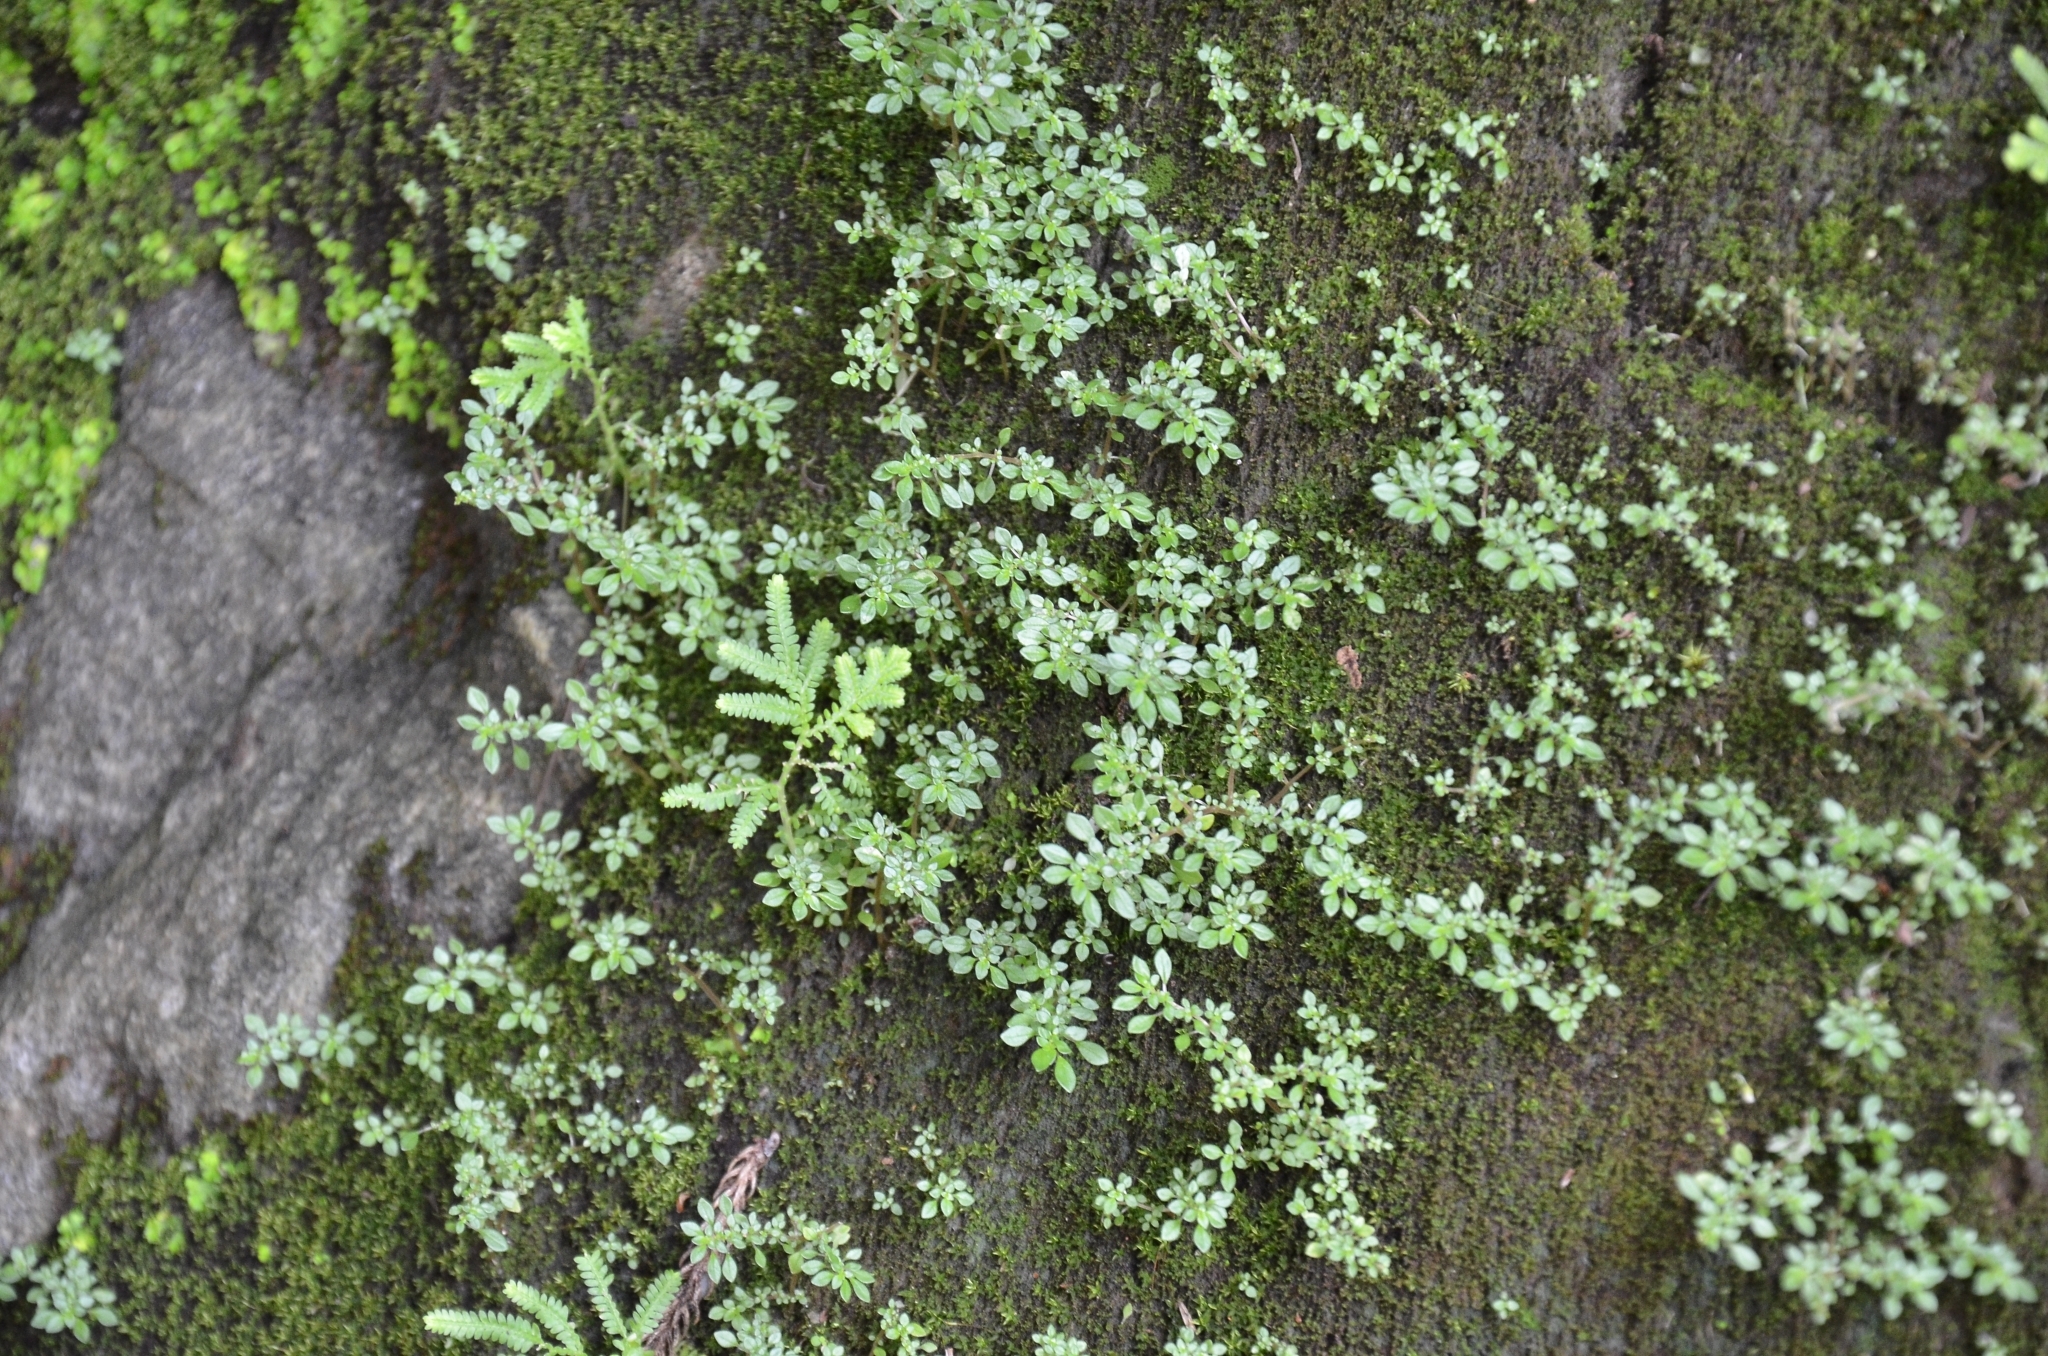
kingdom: Plantae
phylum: Tracheophyta
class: Magnoliopsida
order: Rosales
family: Urticaceae
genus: Pilea
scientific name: Pilea microphylla
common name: Artillery-plant
